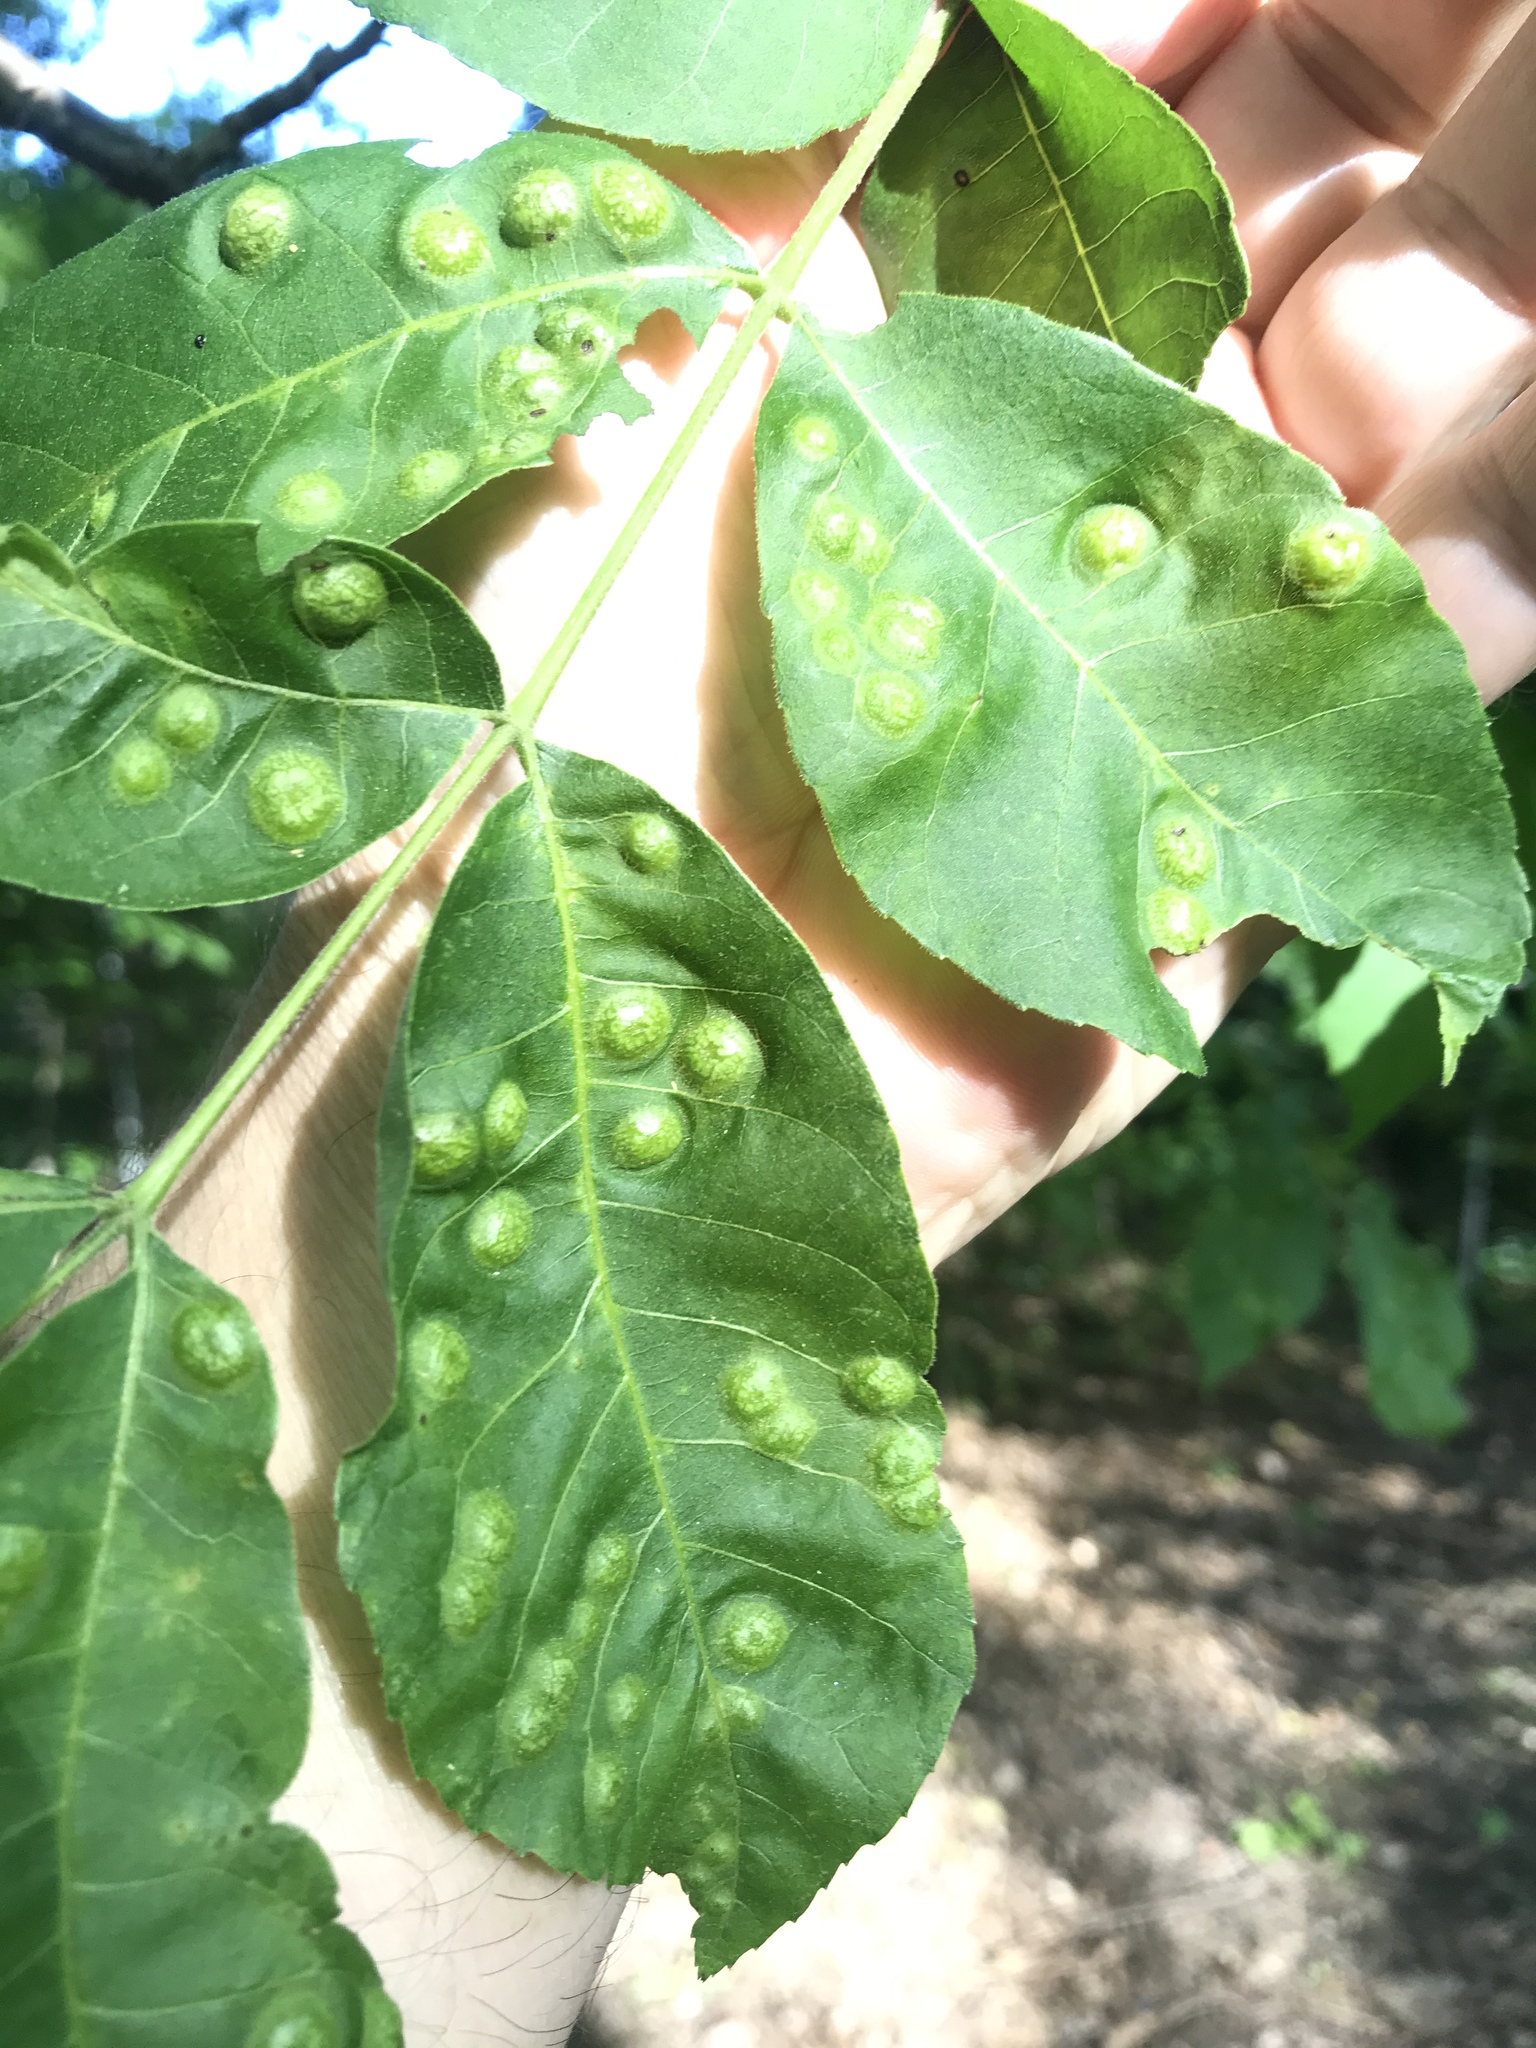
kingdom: Animalia
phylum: Arthropoda
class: Insecta
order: Hemiptera
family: Phylloxeridae
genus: Phylloxera
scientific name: Phylloxera russellae
